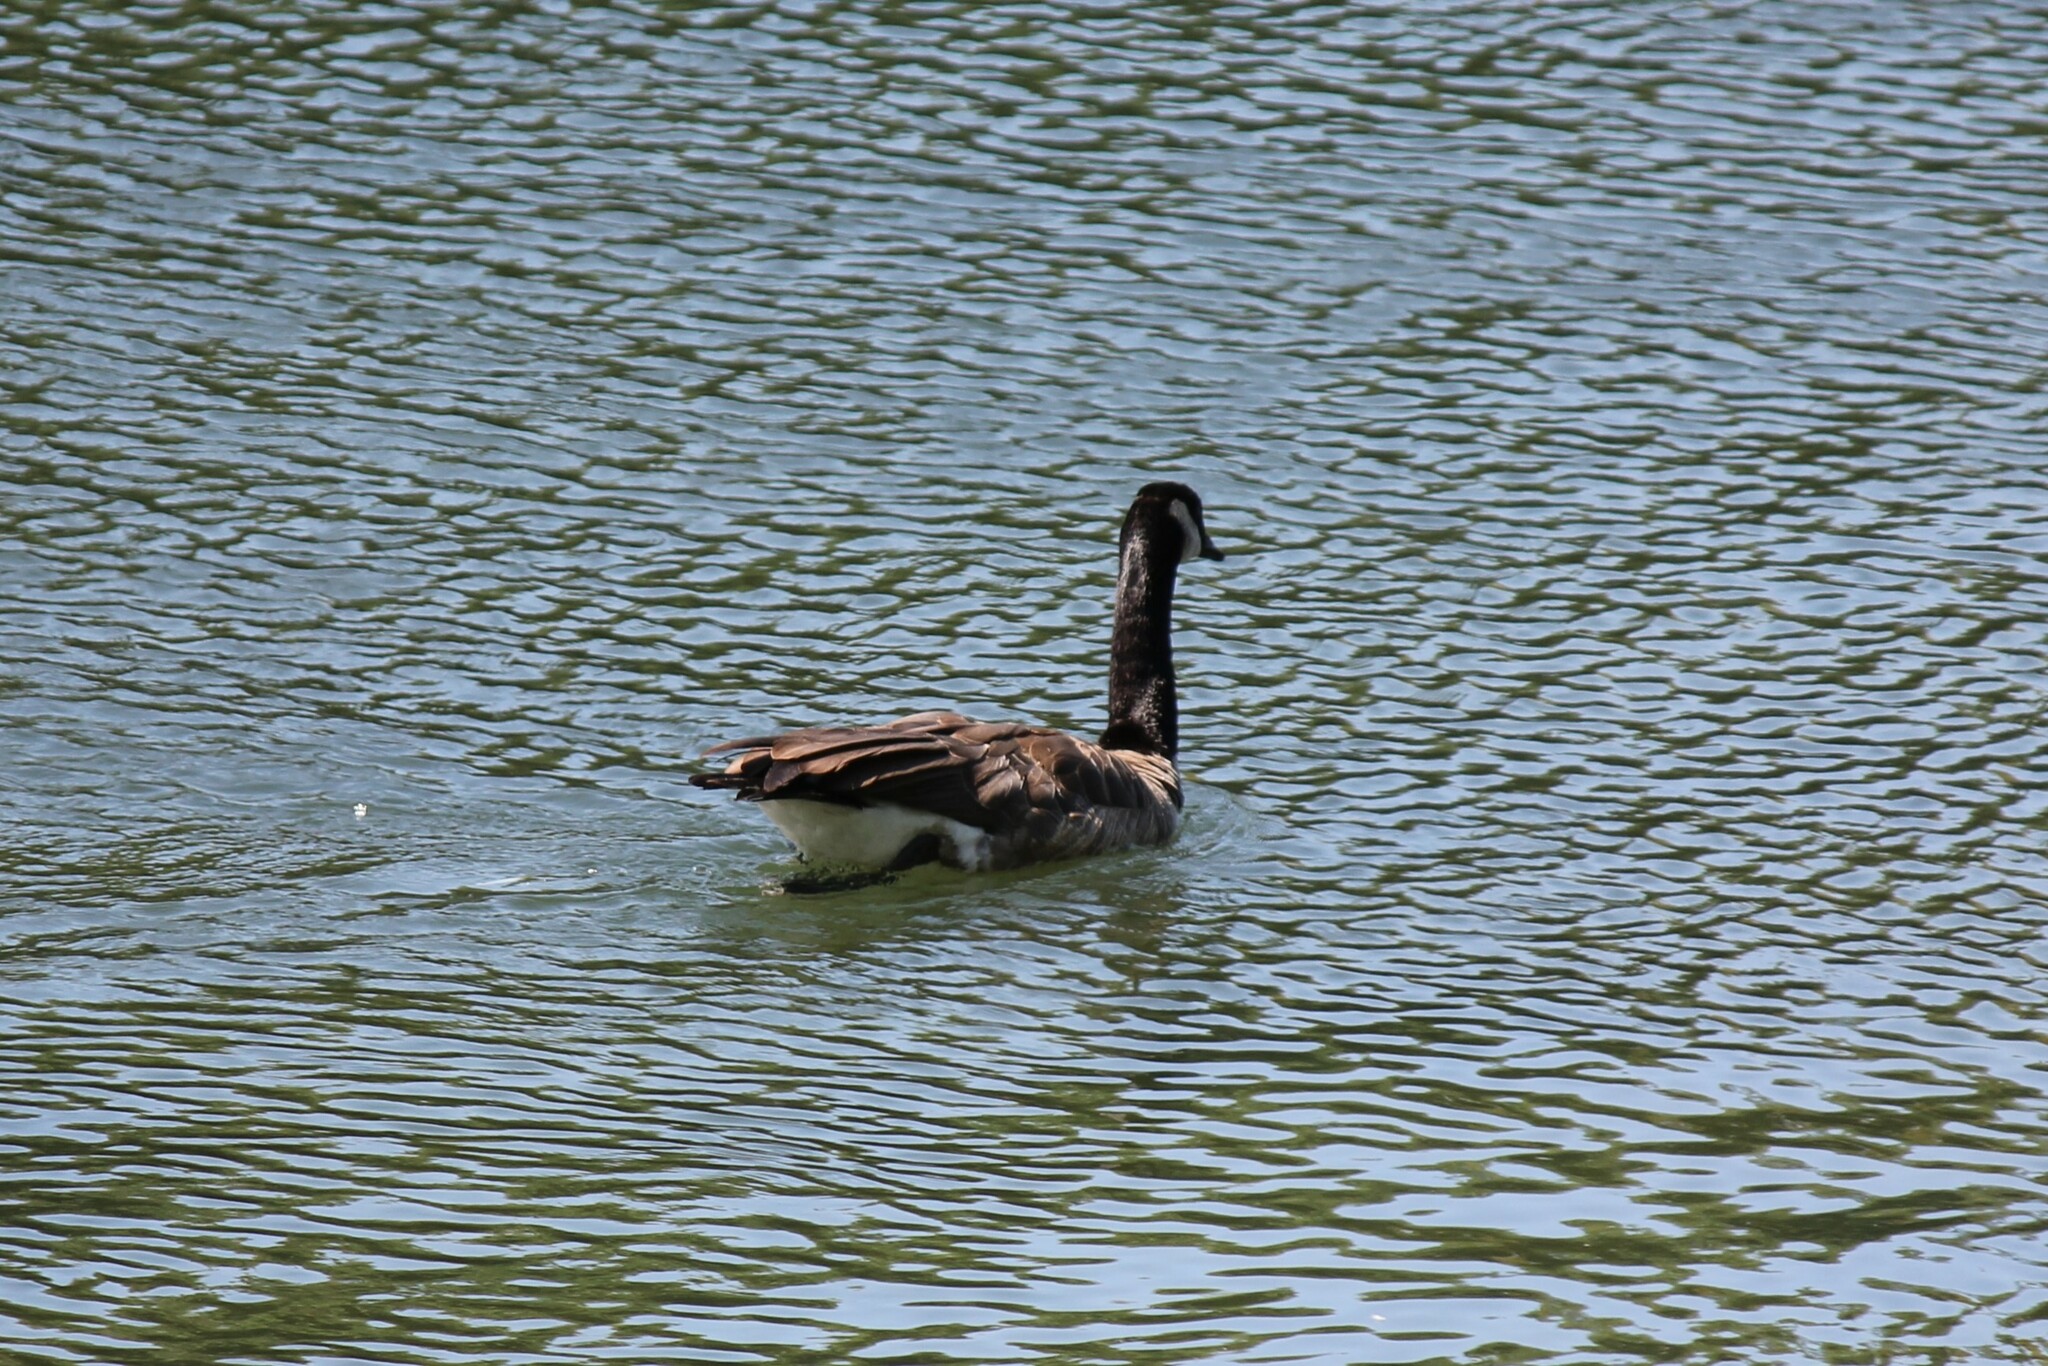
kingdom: Animalia
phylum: Chordata
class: Aves
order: Anseriformes
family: Anatidae
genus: Branta
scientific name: Branta canadensis
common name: Canada goose
